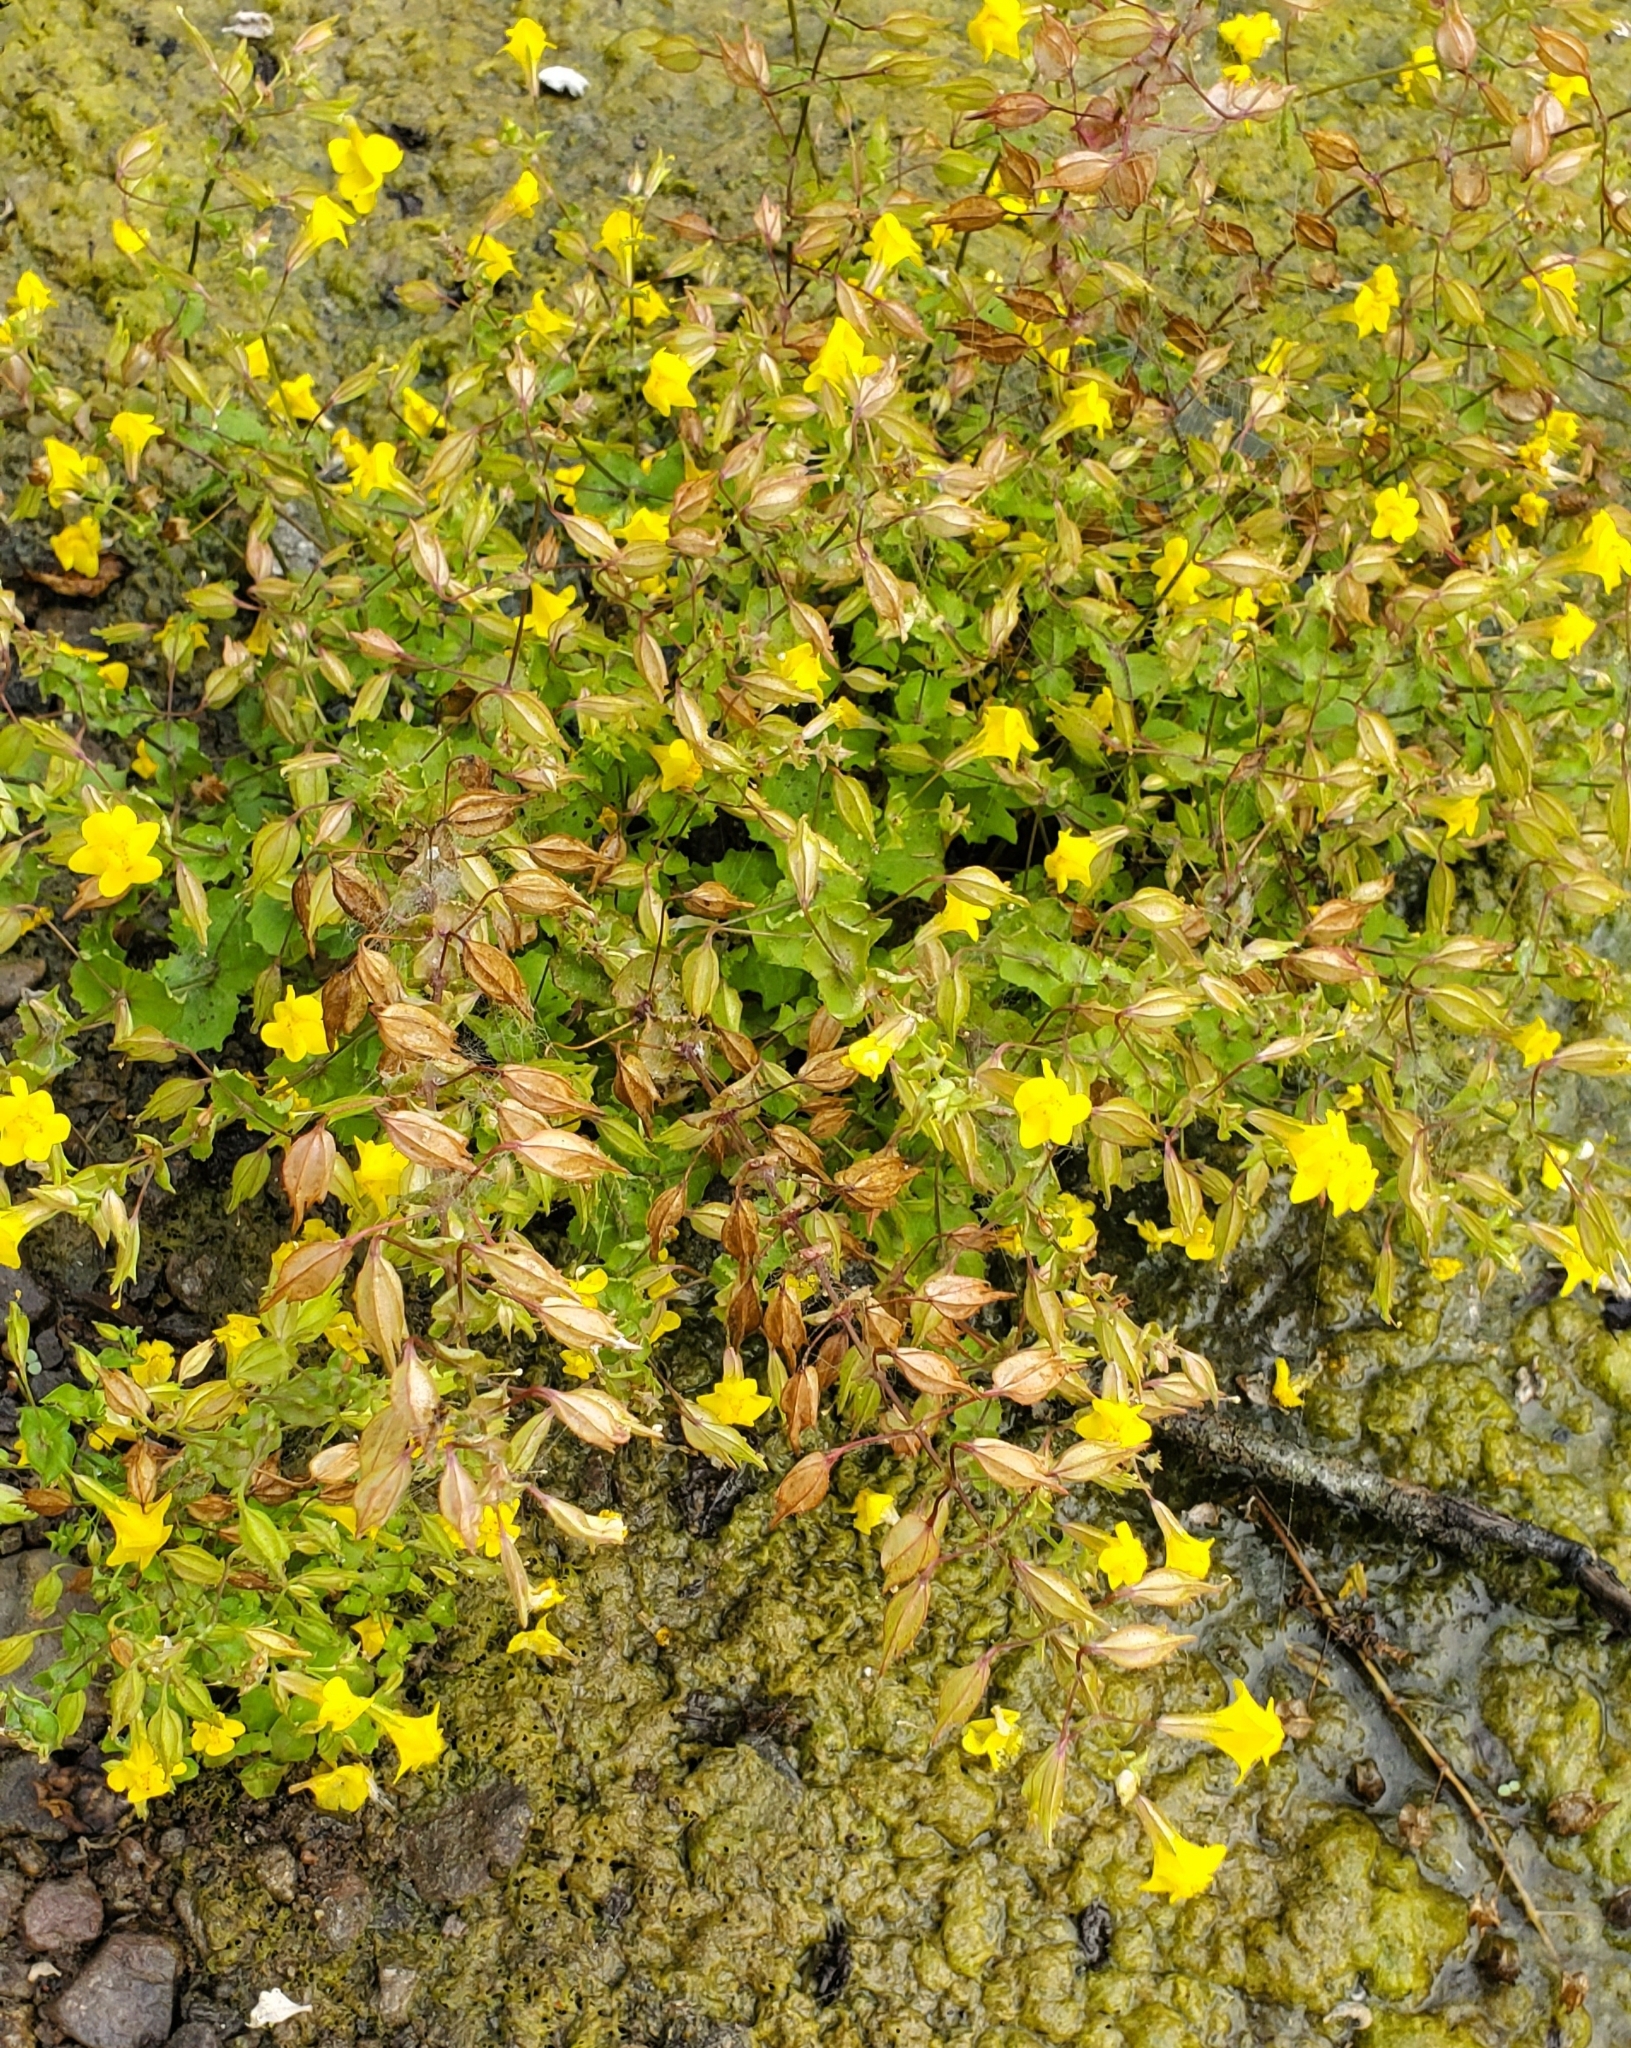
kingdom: Plantae
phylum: Tracheophyta
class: Magnoliopsida
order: Lamiales
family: Phrymaceae
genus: Erythranthe
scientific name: Erythranthe guttata
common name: Monkeyflower
